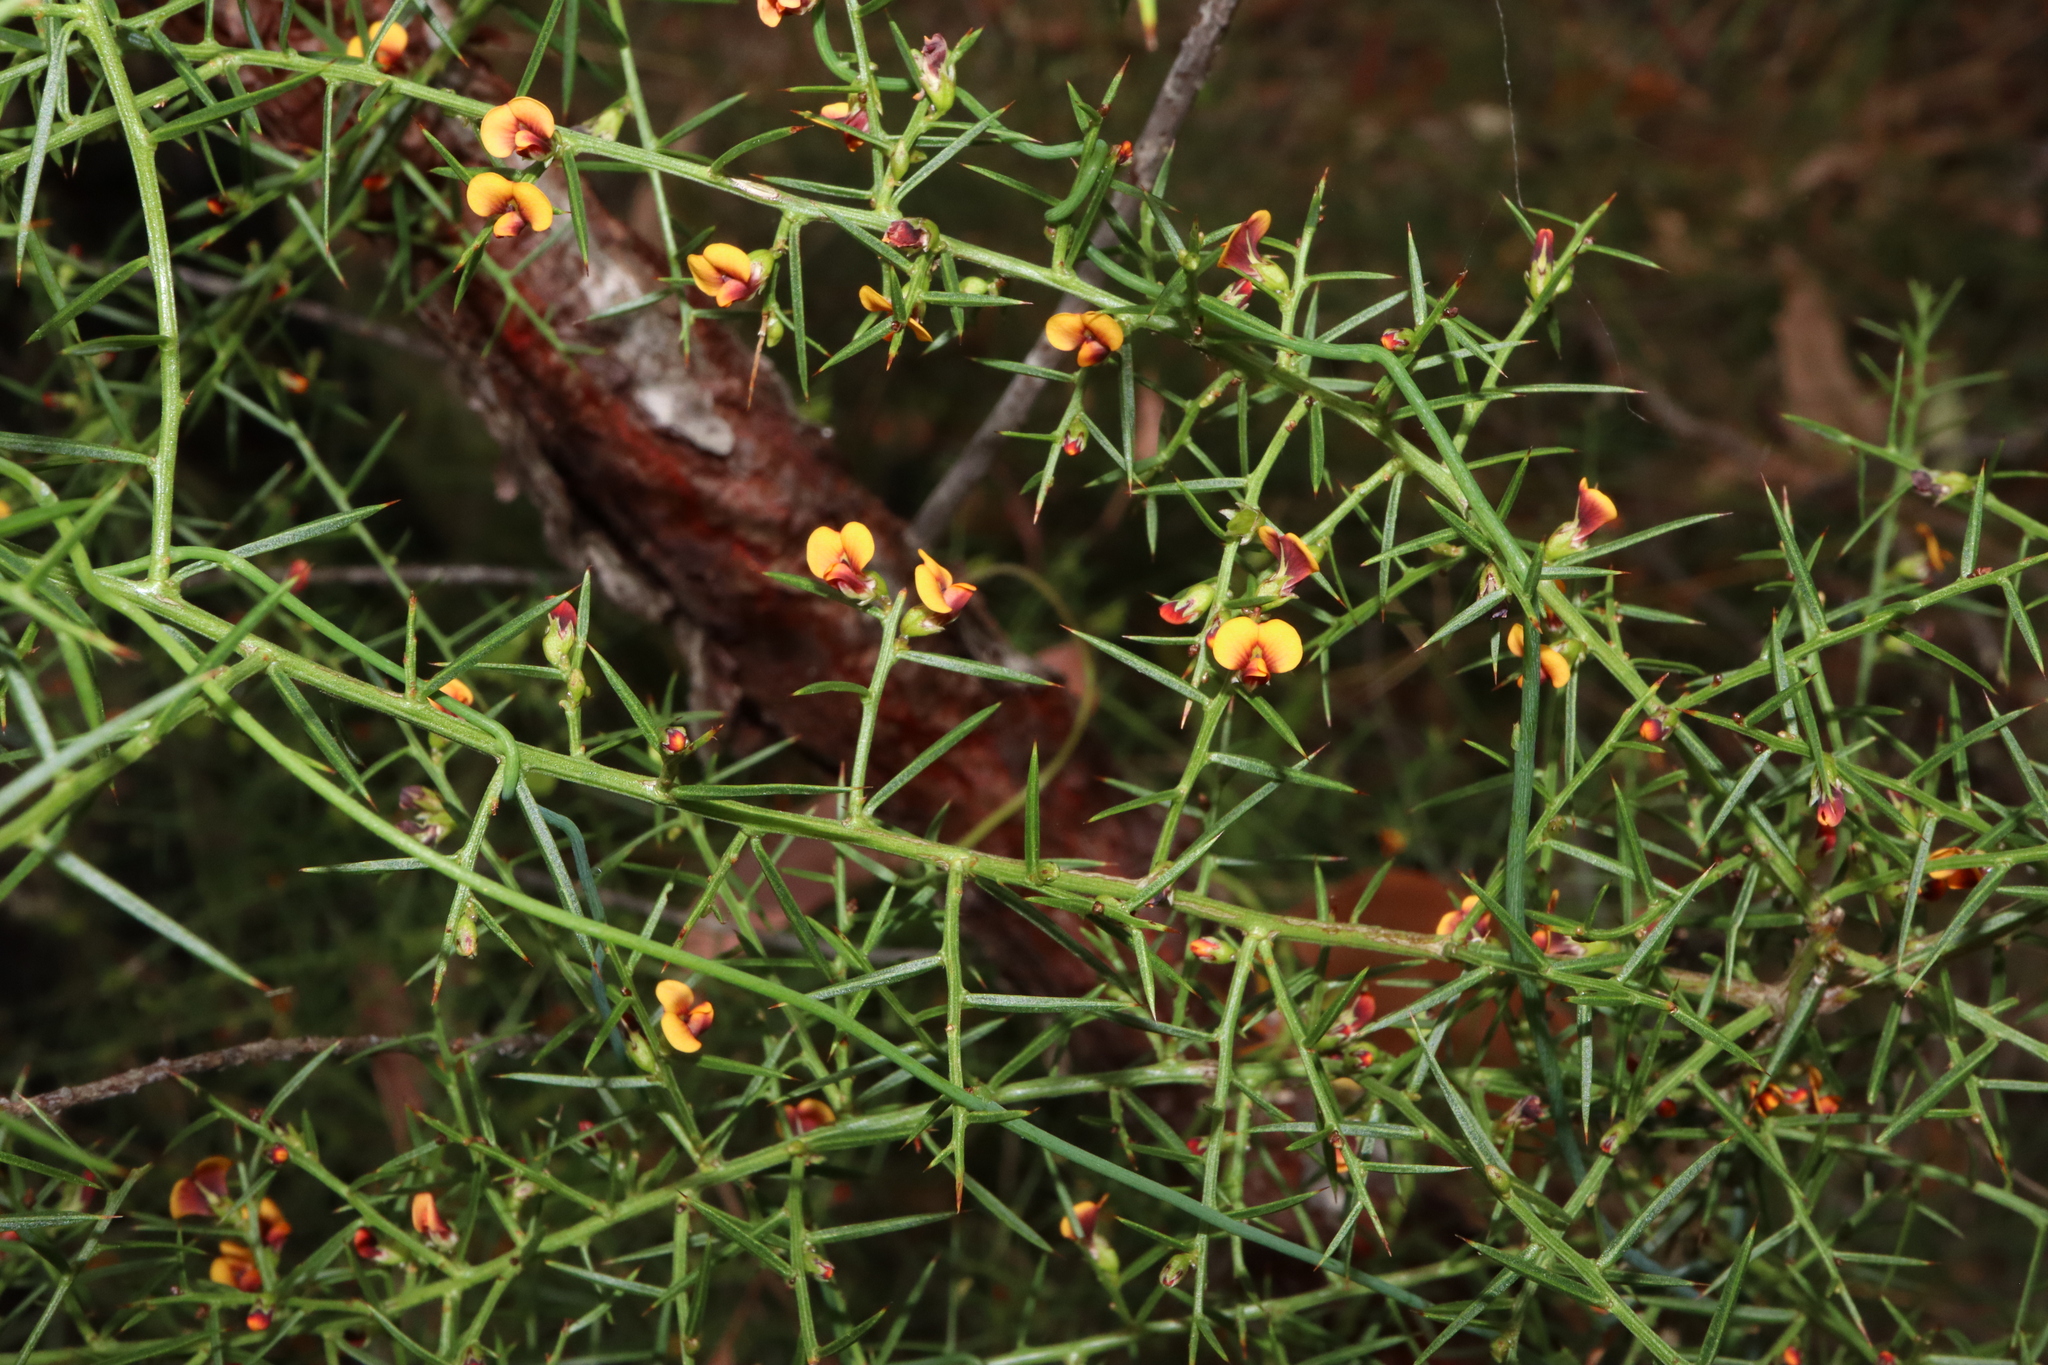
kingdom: Plantae
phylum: Tracheophyta
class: Magnoliopsida
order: Fabales
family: Fabaceae
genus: Daviesia
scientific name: Daviesia ulicifolia
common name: Gorse bitter-pea
